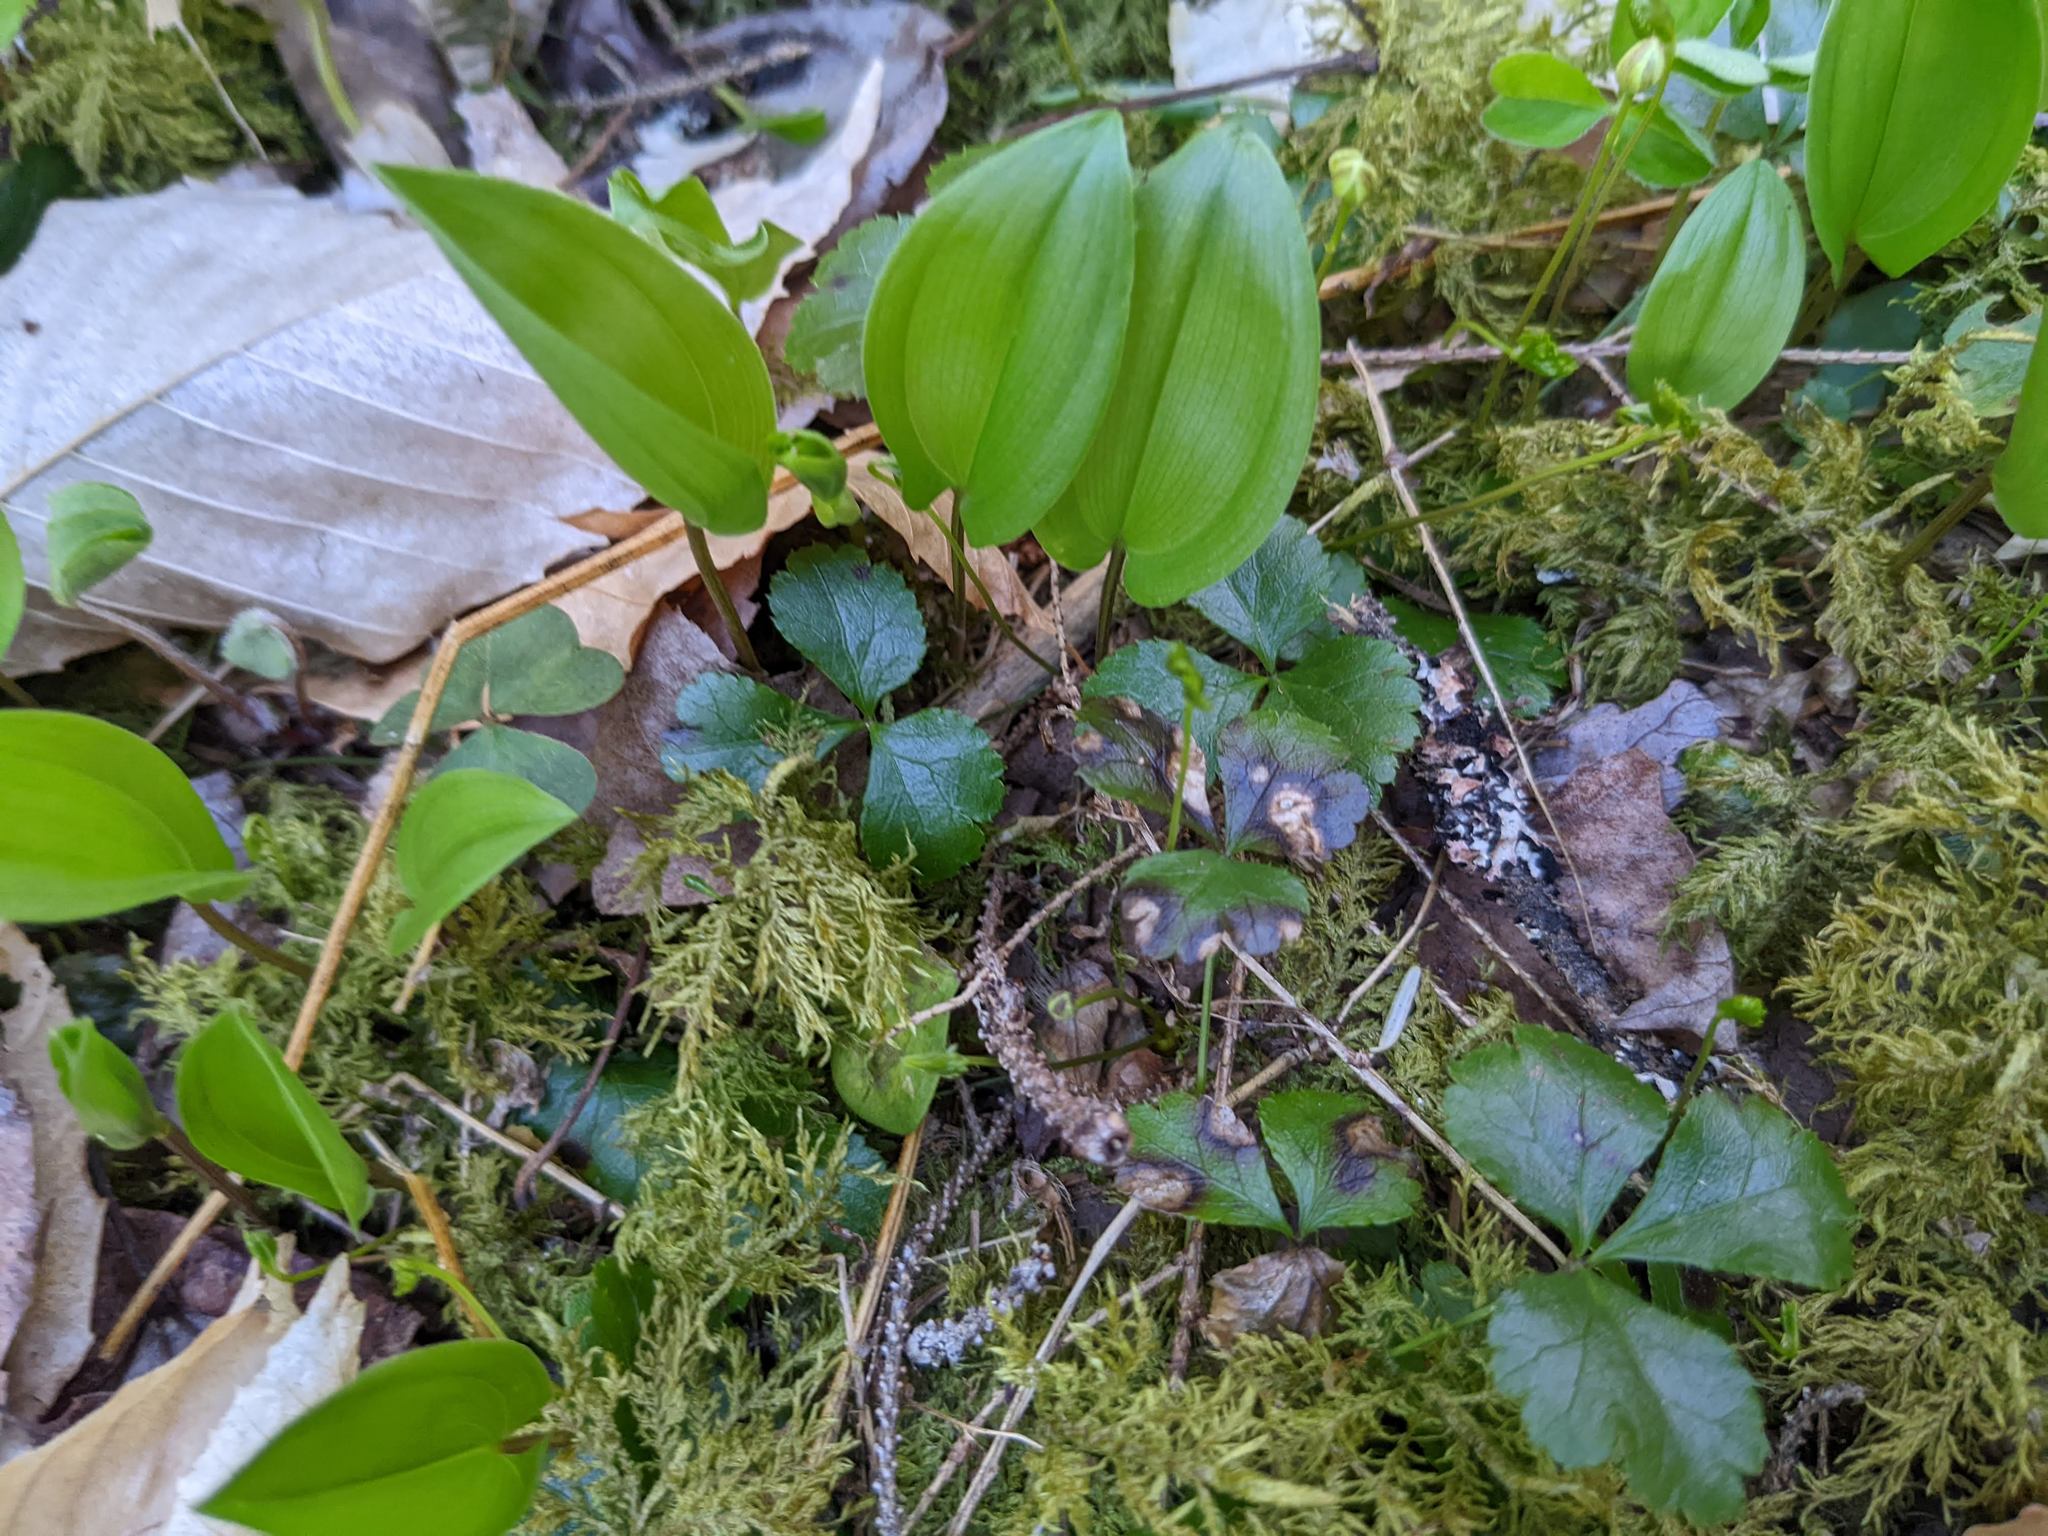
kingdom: Plantae
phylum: Tracheophyta
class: Magnoliopsida
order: Ranunculales
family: Ranunculaceae
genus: Coptis
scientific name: Coptis trifolia
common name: Canker-root
